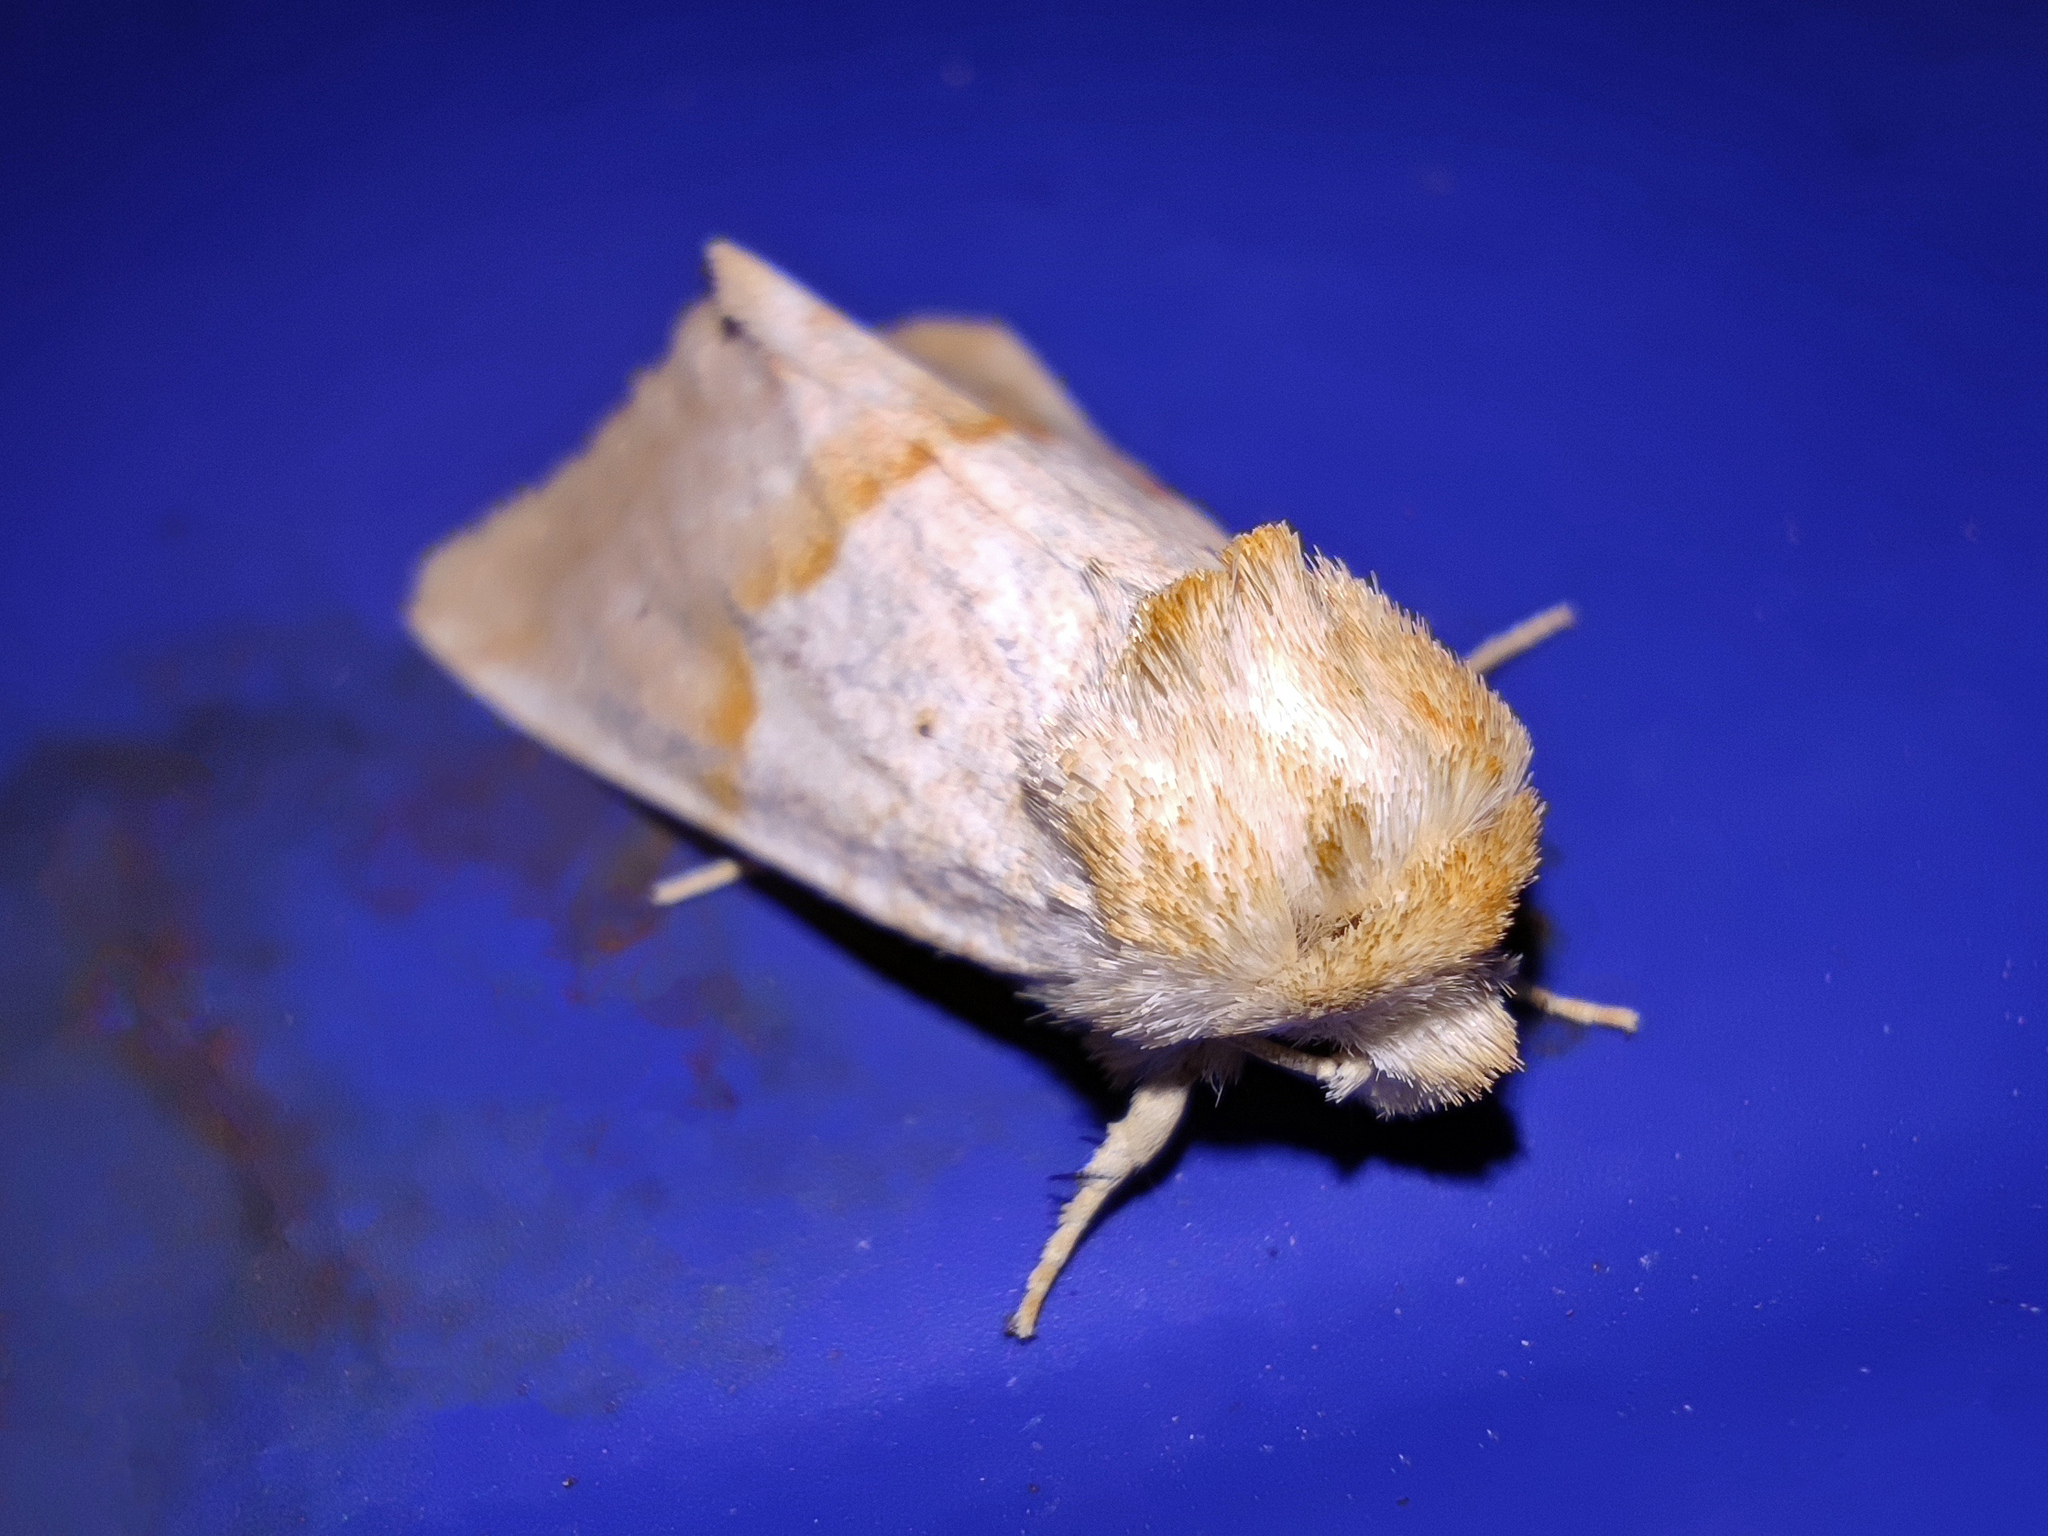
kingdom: Animalia
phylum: Arthropoda
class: Insecta
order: Lepidoptera
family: Noctuidae
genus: Mycteroplus
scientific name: Mycteroplus puniceago
